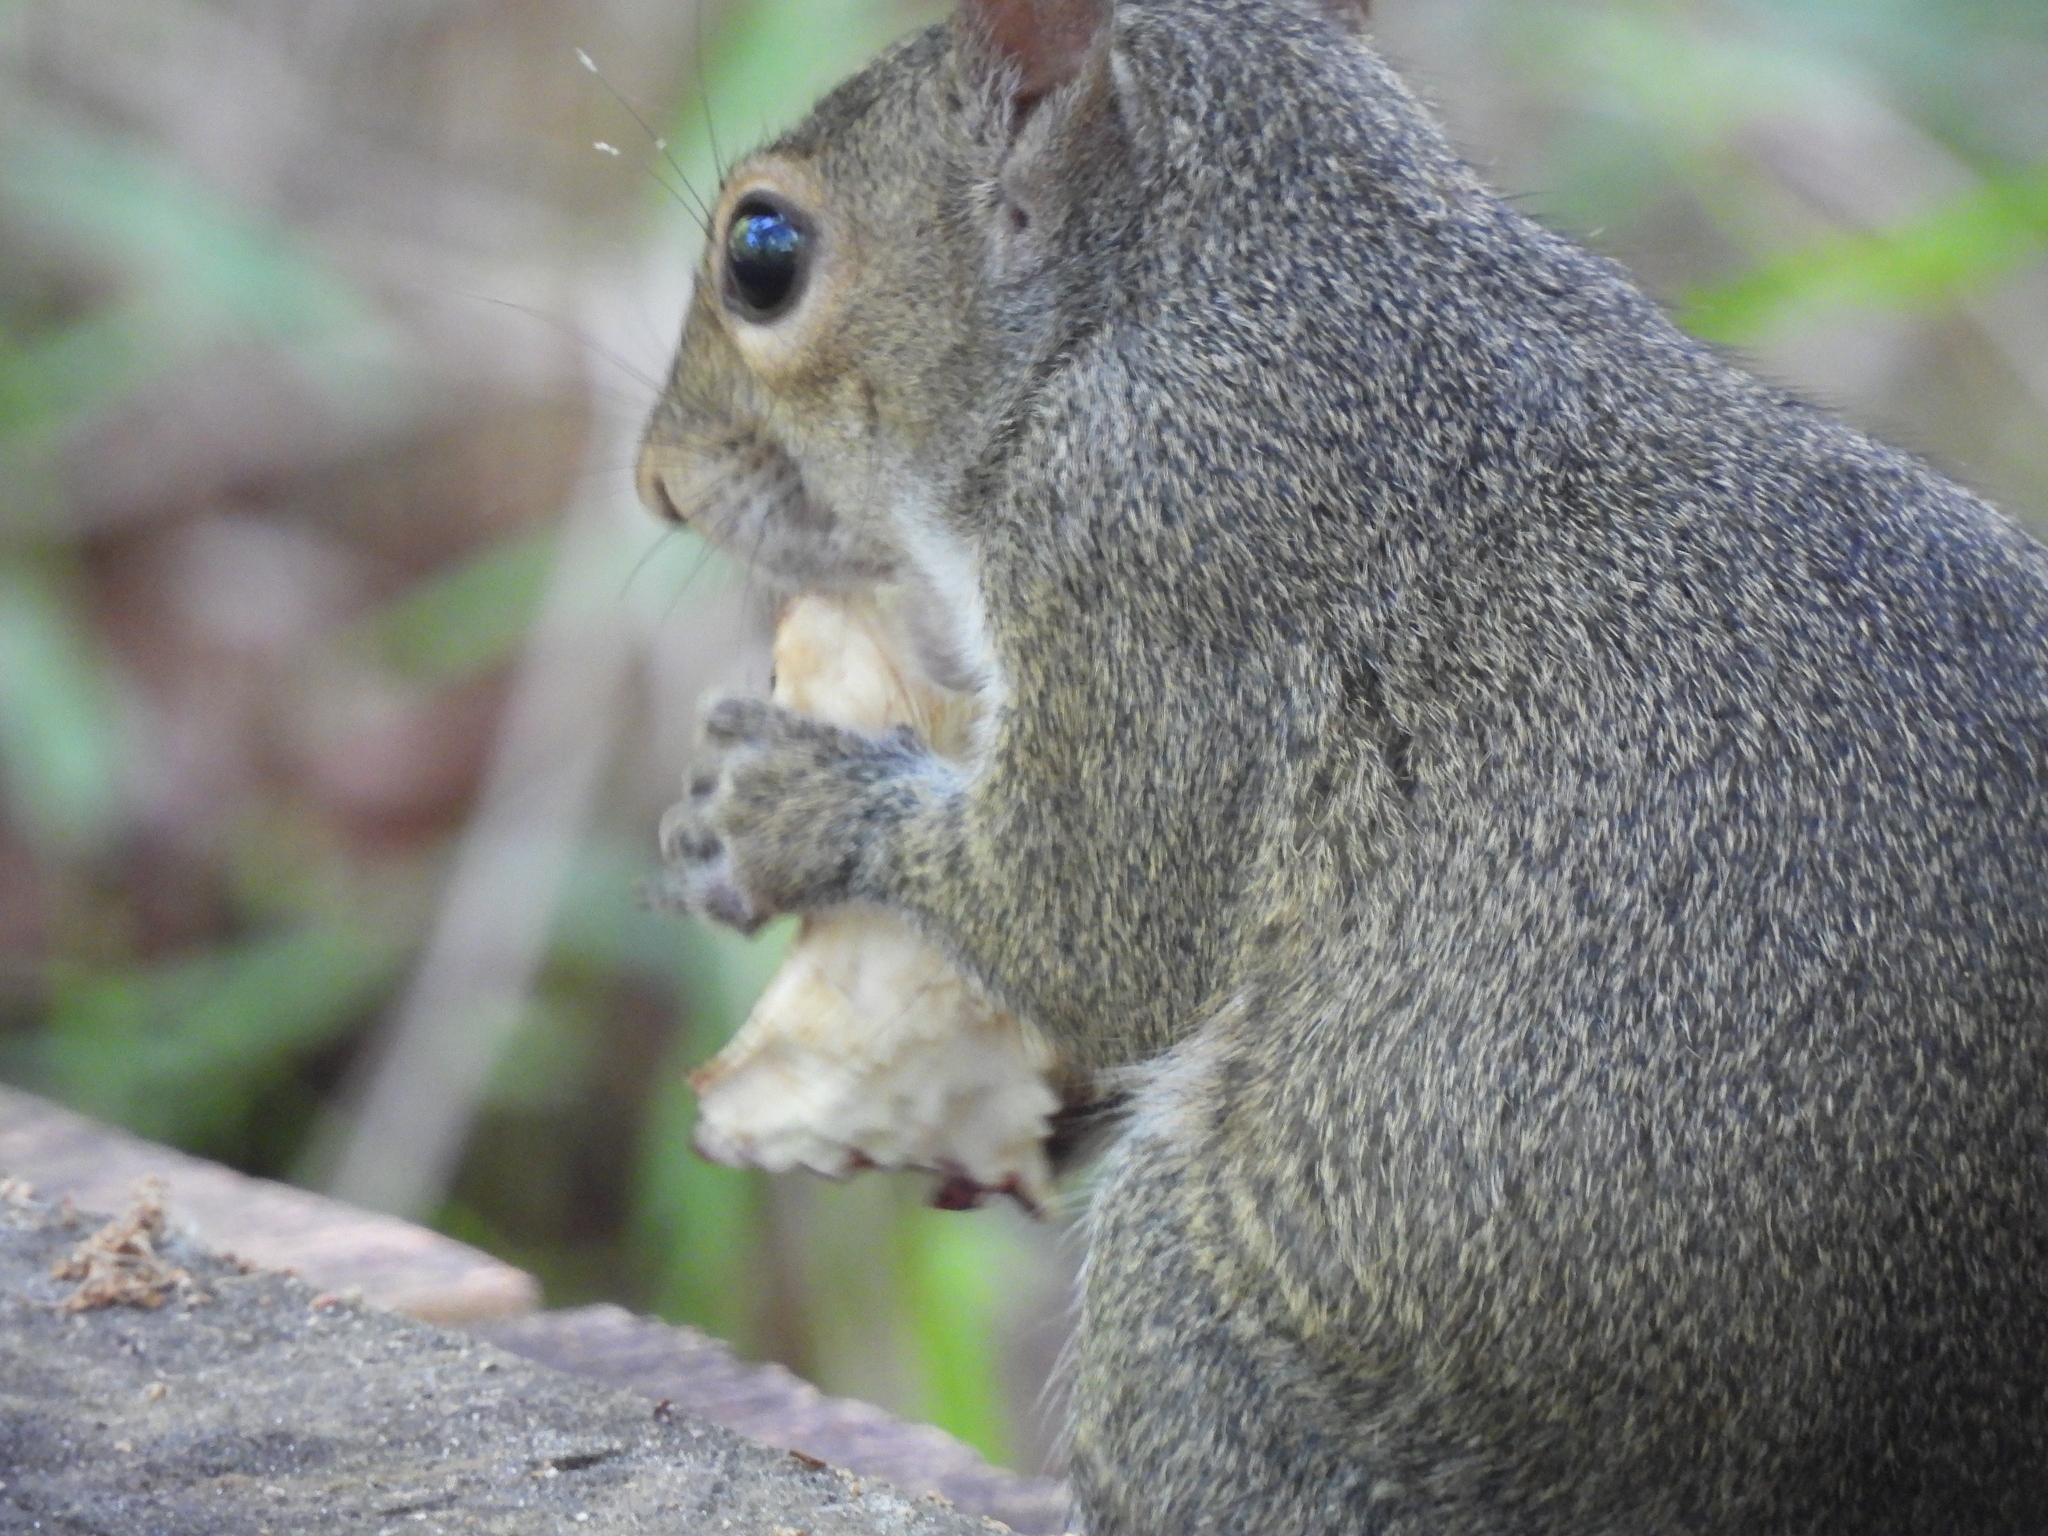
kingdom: Animalia
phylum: Chordata
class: Mammalia
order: Rodentia
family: Sciuridae
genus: Sciurus
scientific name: Sciurus carolinensis
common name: Eastern gray squirrel
